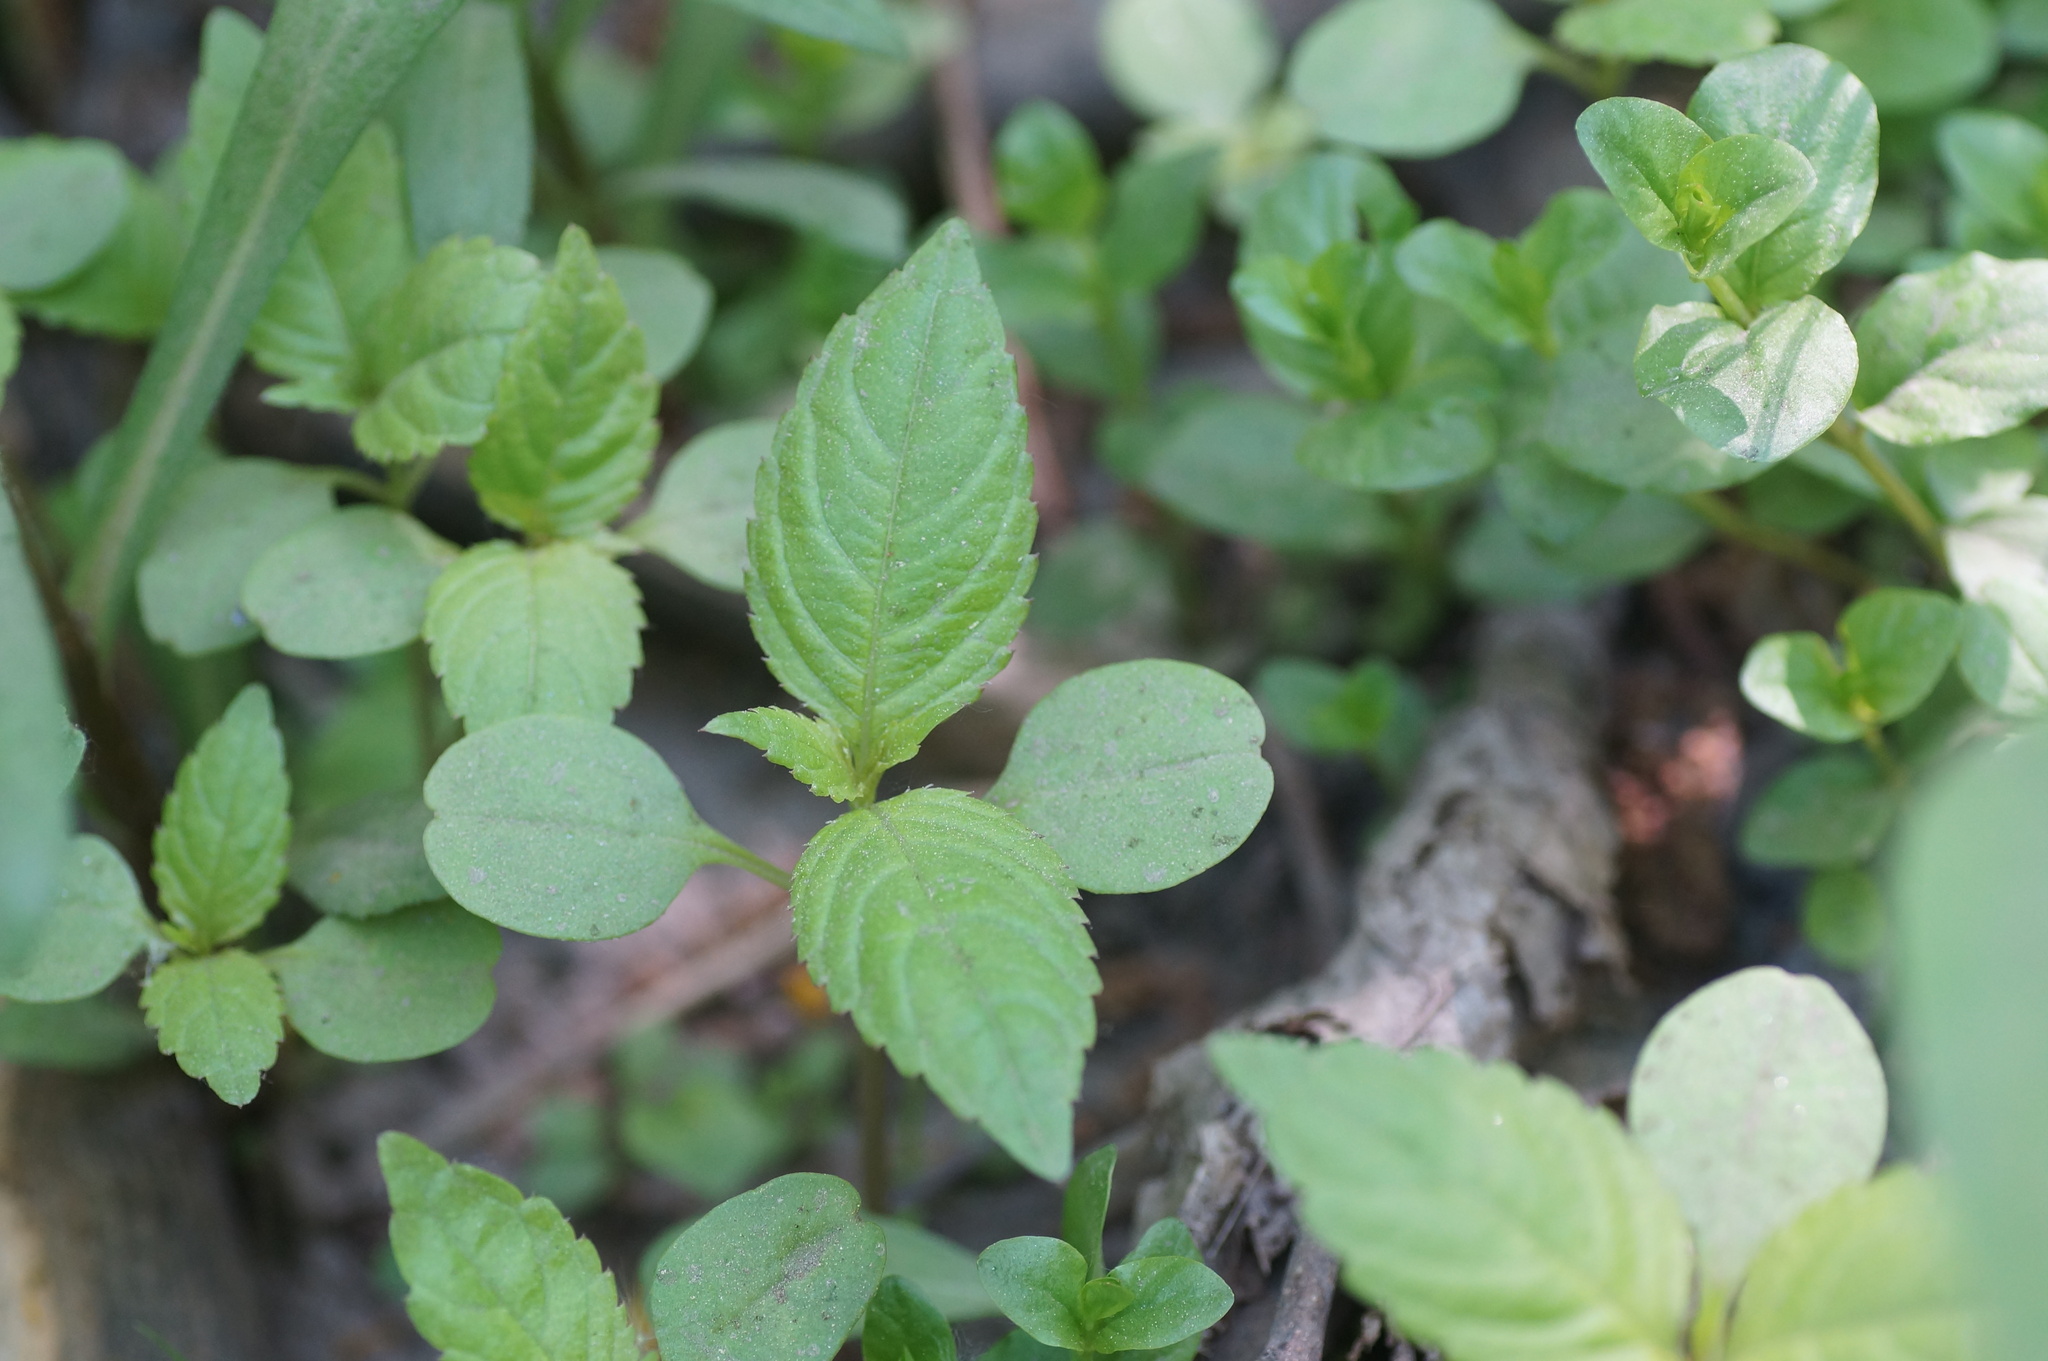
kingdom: Plantae
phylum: Tracheophyta
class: Magnoliopsida
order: Ericales
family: Balsaminaceae
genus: Impatiens
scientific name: Impatiens parviflora
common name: Small balsam
